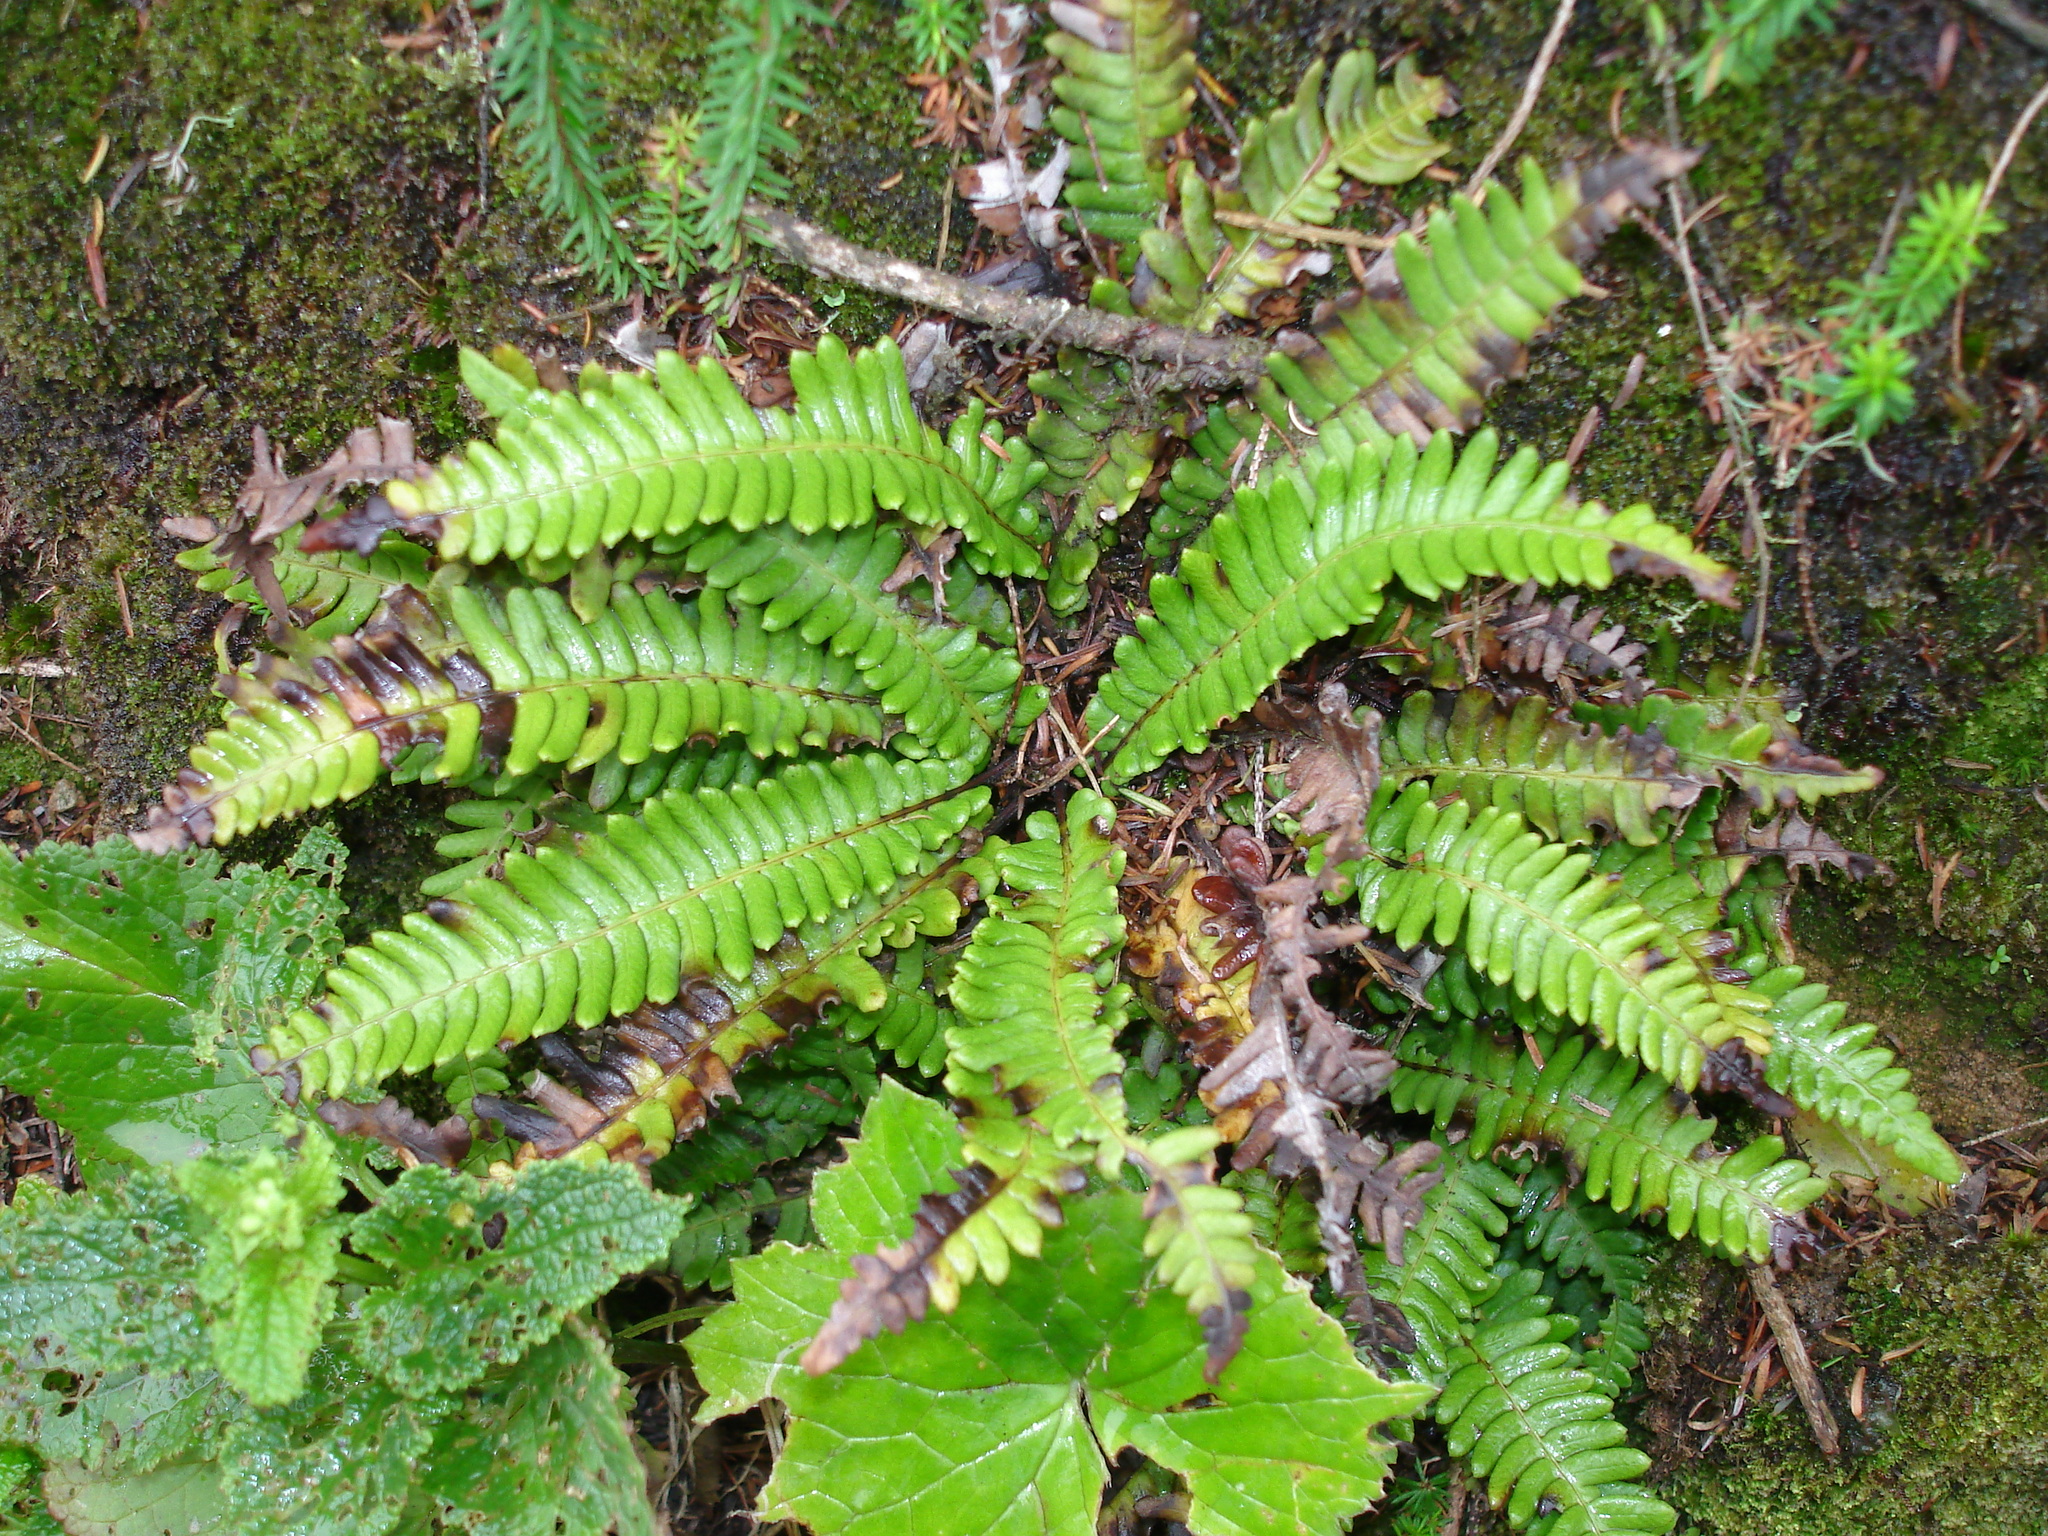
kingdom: Plantae
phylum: Tracheophyta
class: Polypodiopsida
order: Polypodiales
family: Blechnaceae
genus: Struthiopteris
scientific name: Struthiopteris spicant
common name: Deer fern
